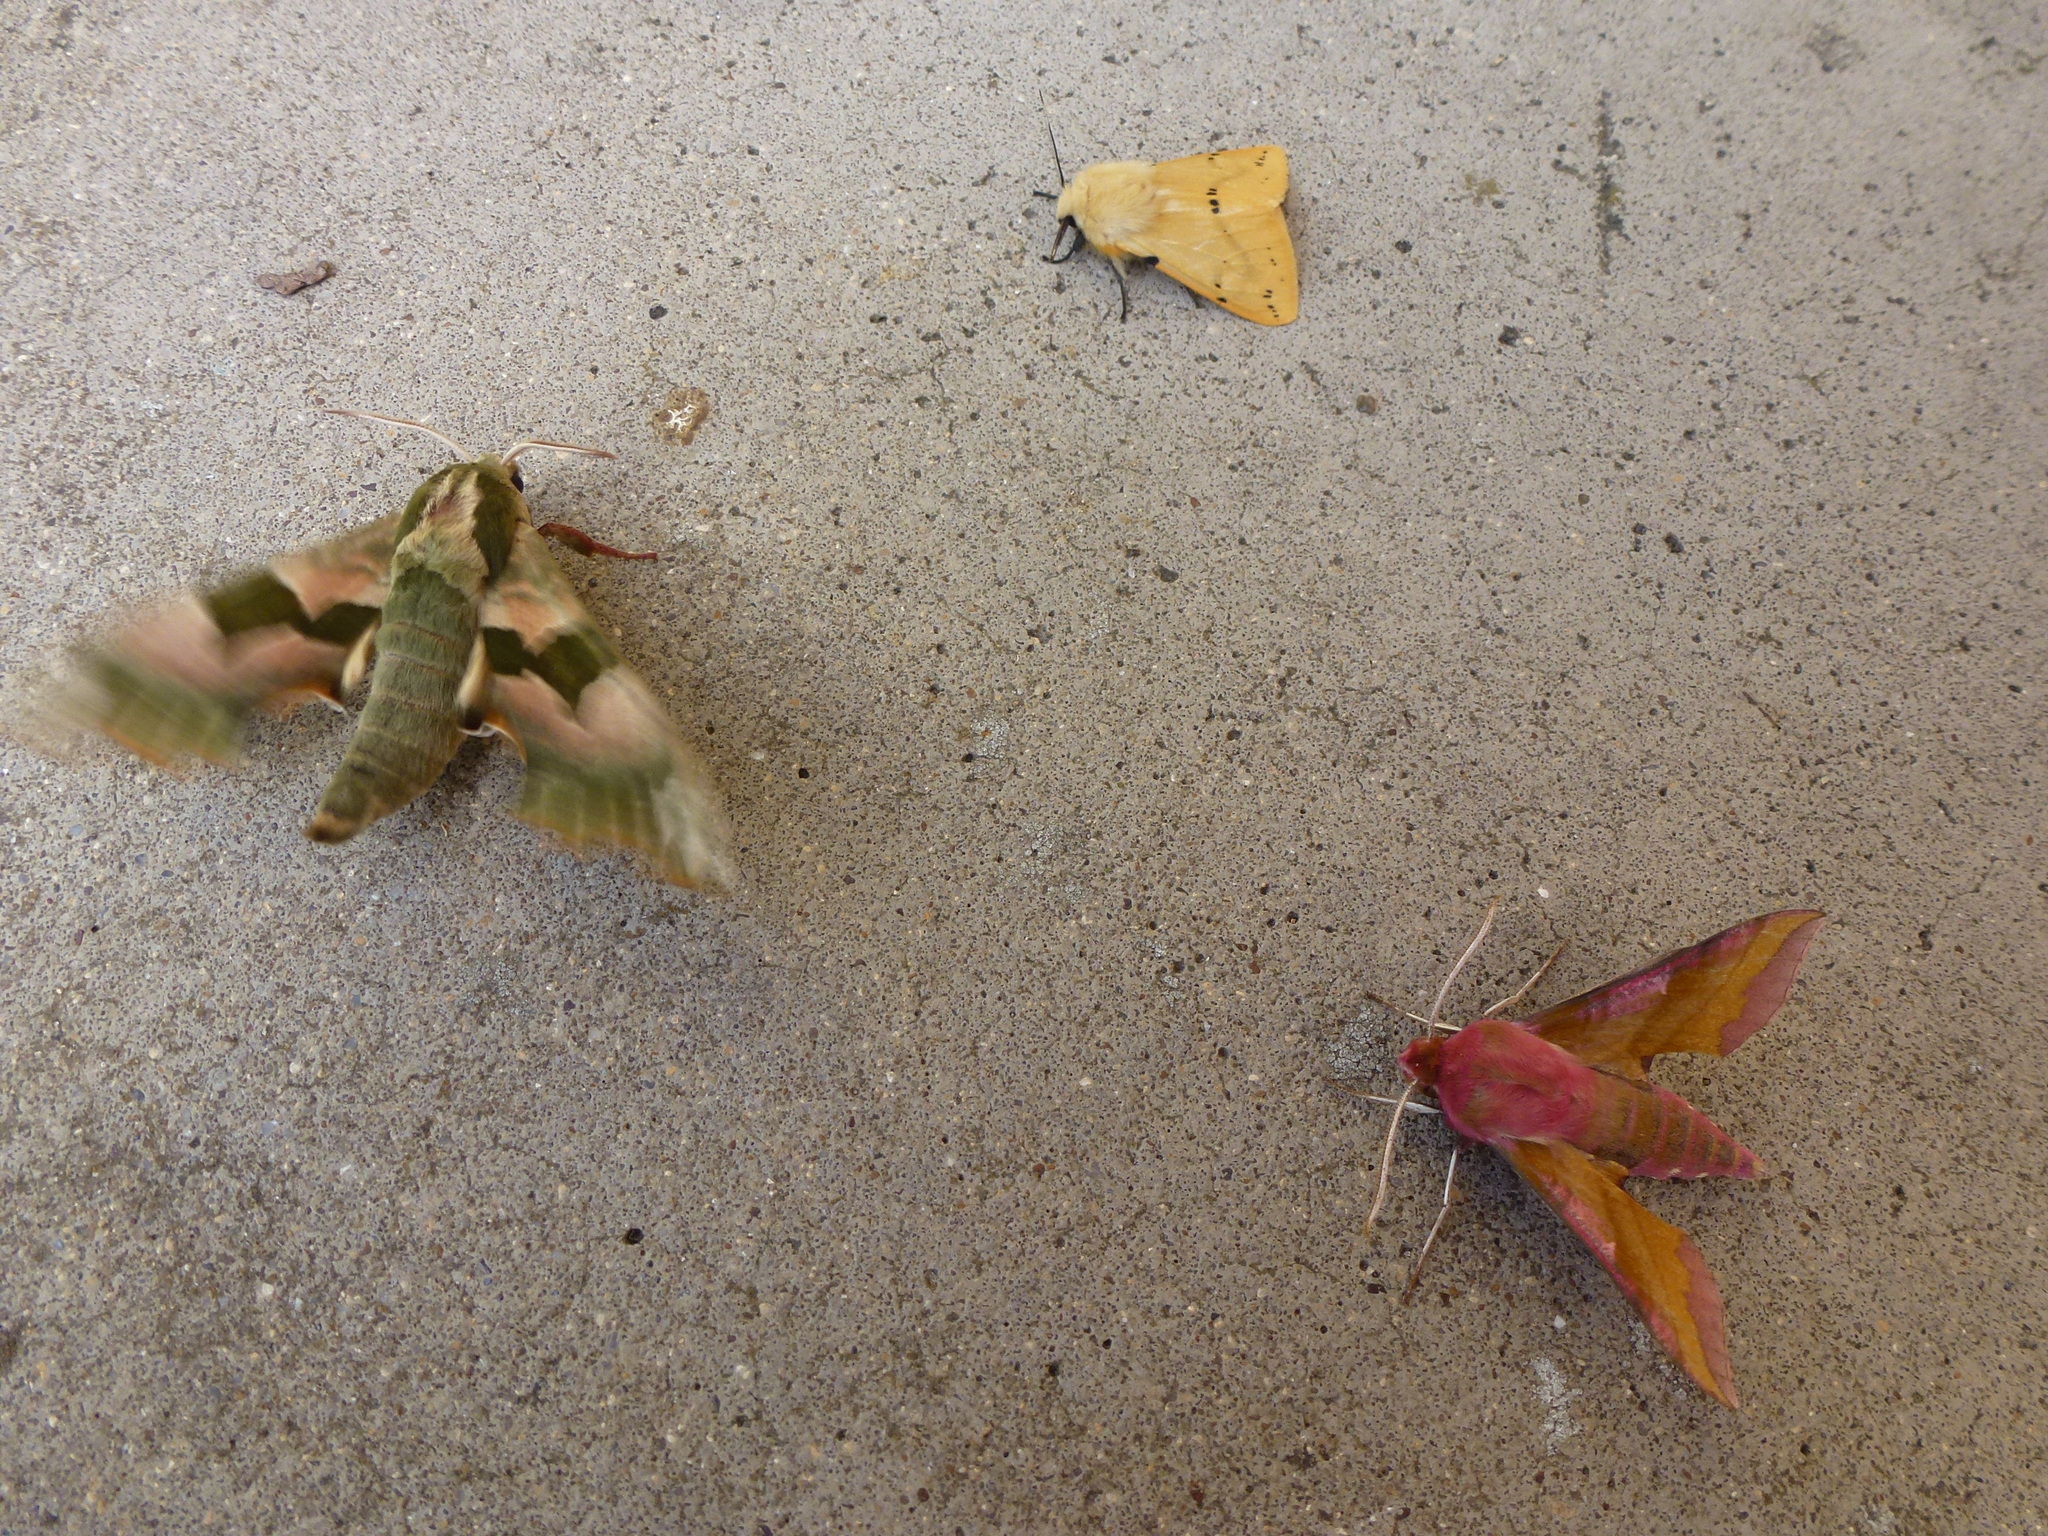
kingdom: Animalia
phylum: Arthropoda
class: Insecta
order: Lepidoptera
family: Sphingidae
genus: Mimas
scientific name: Mimas tiliae
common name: Lime hawk-moth
